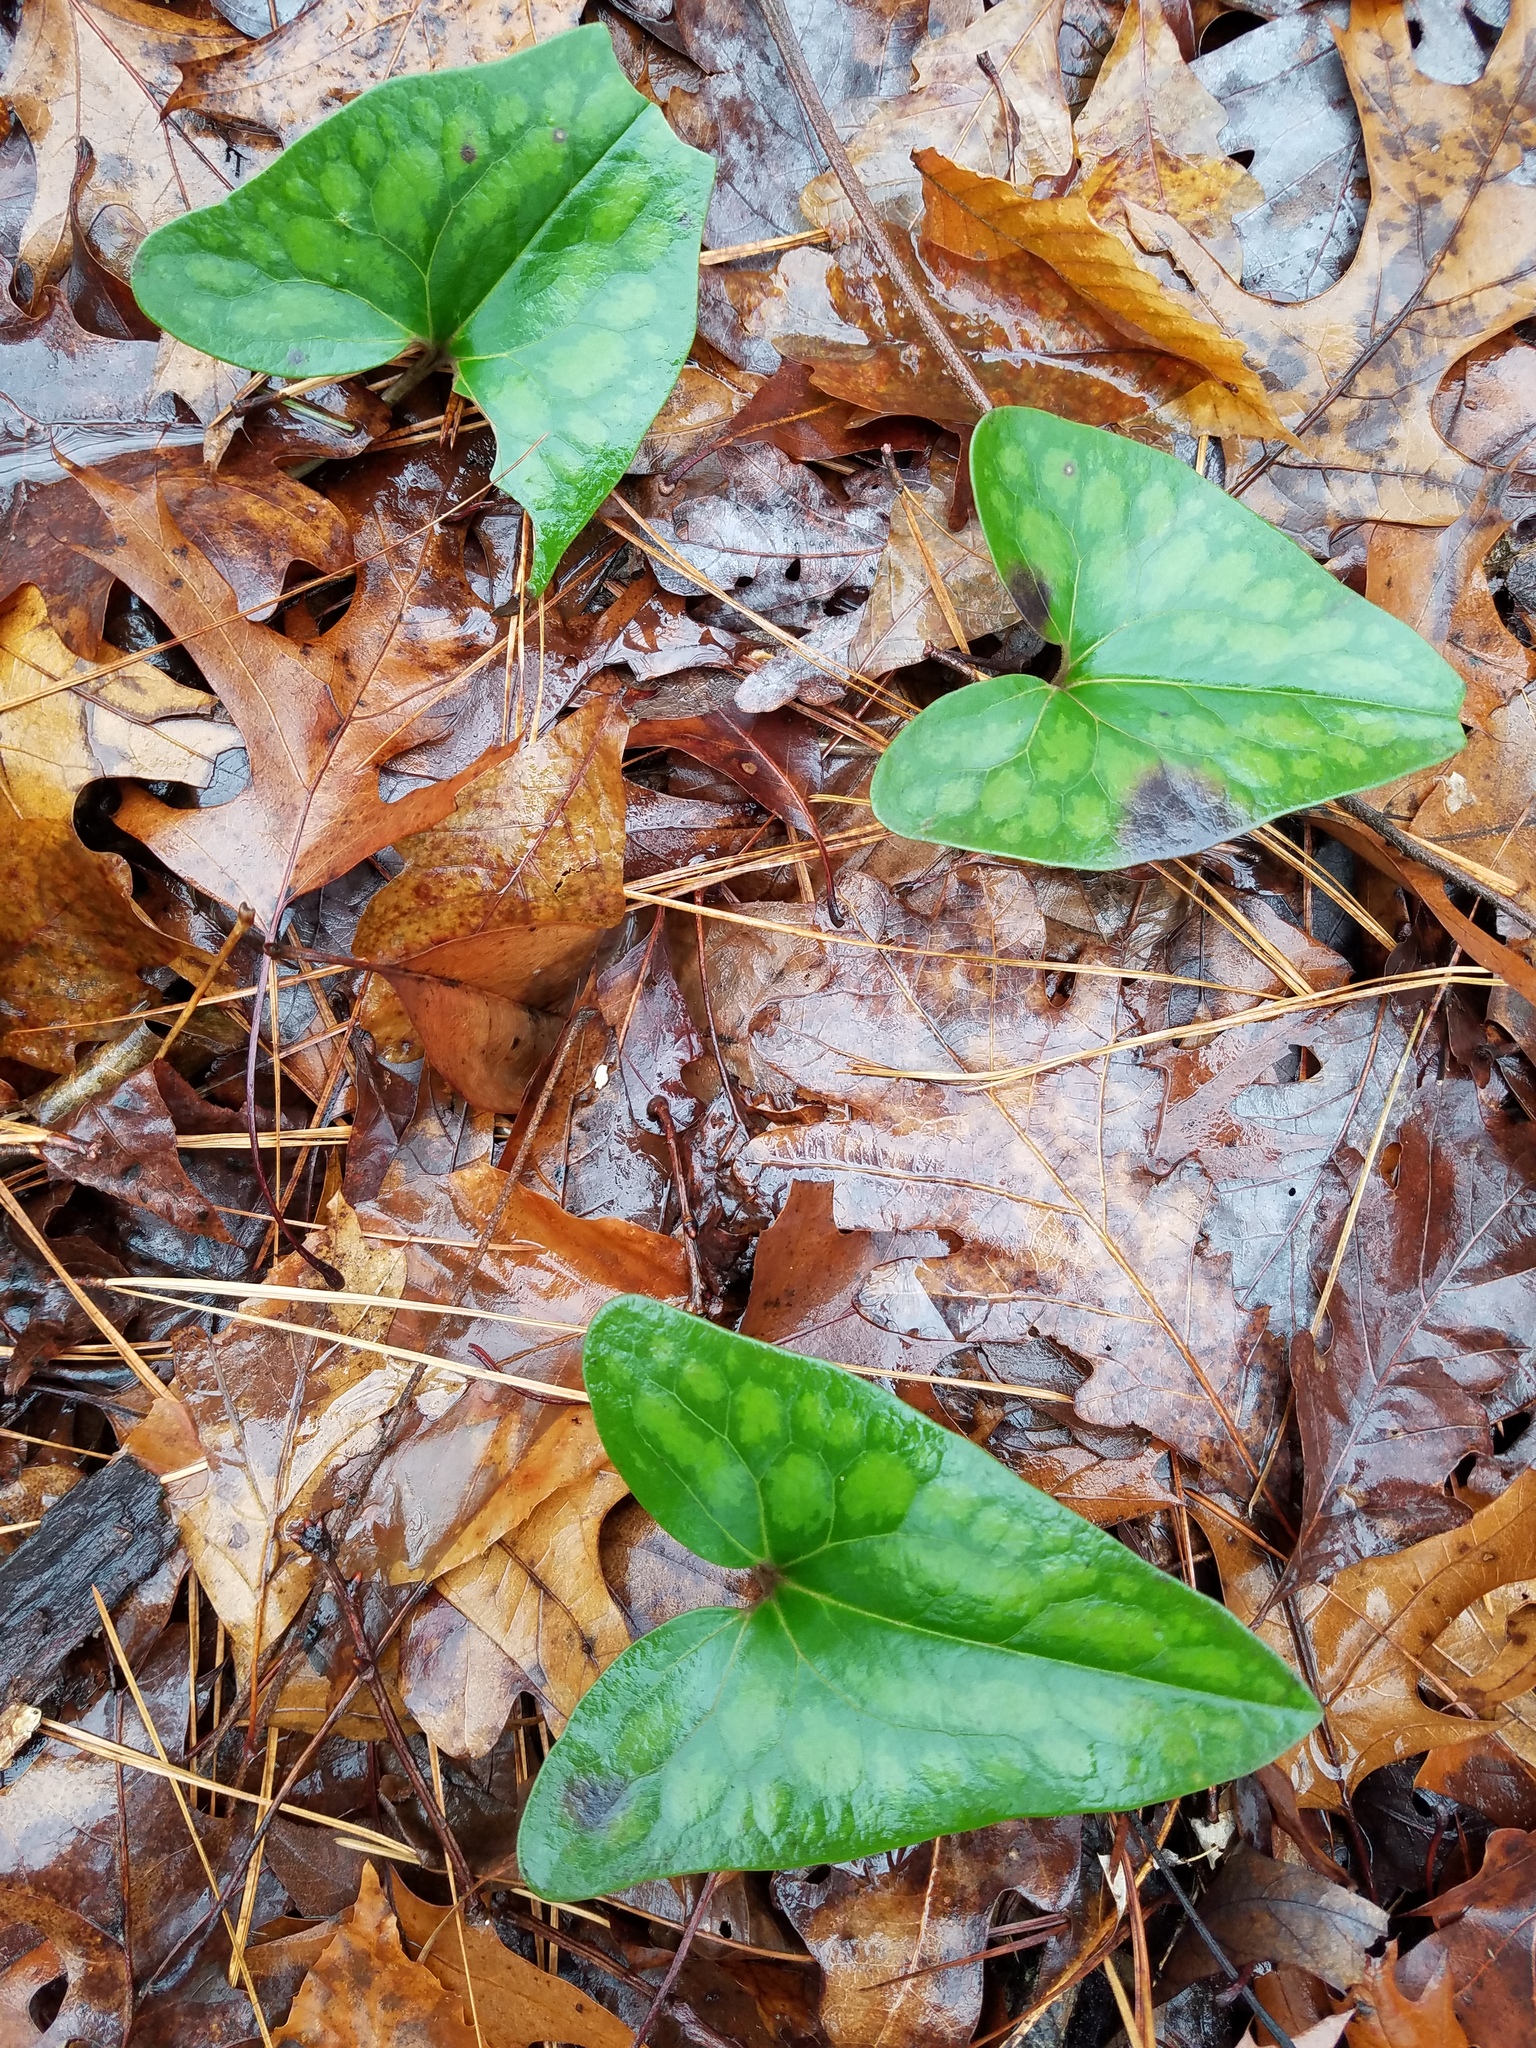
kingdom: Plantae
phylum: Tracheophyta
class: Magnoliopsida
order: Piperales
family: Aristolochiaceae
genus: Hexastylis
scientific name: Hexastylis arifolia
